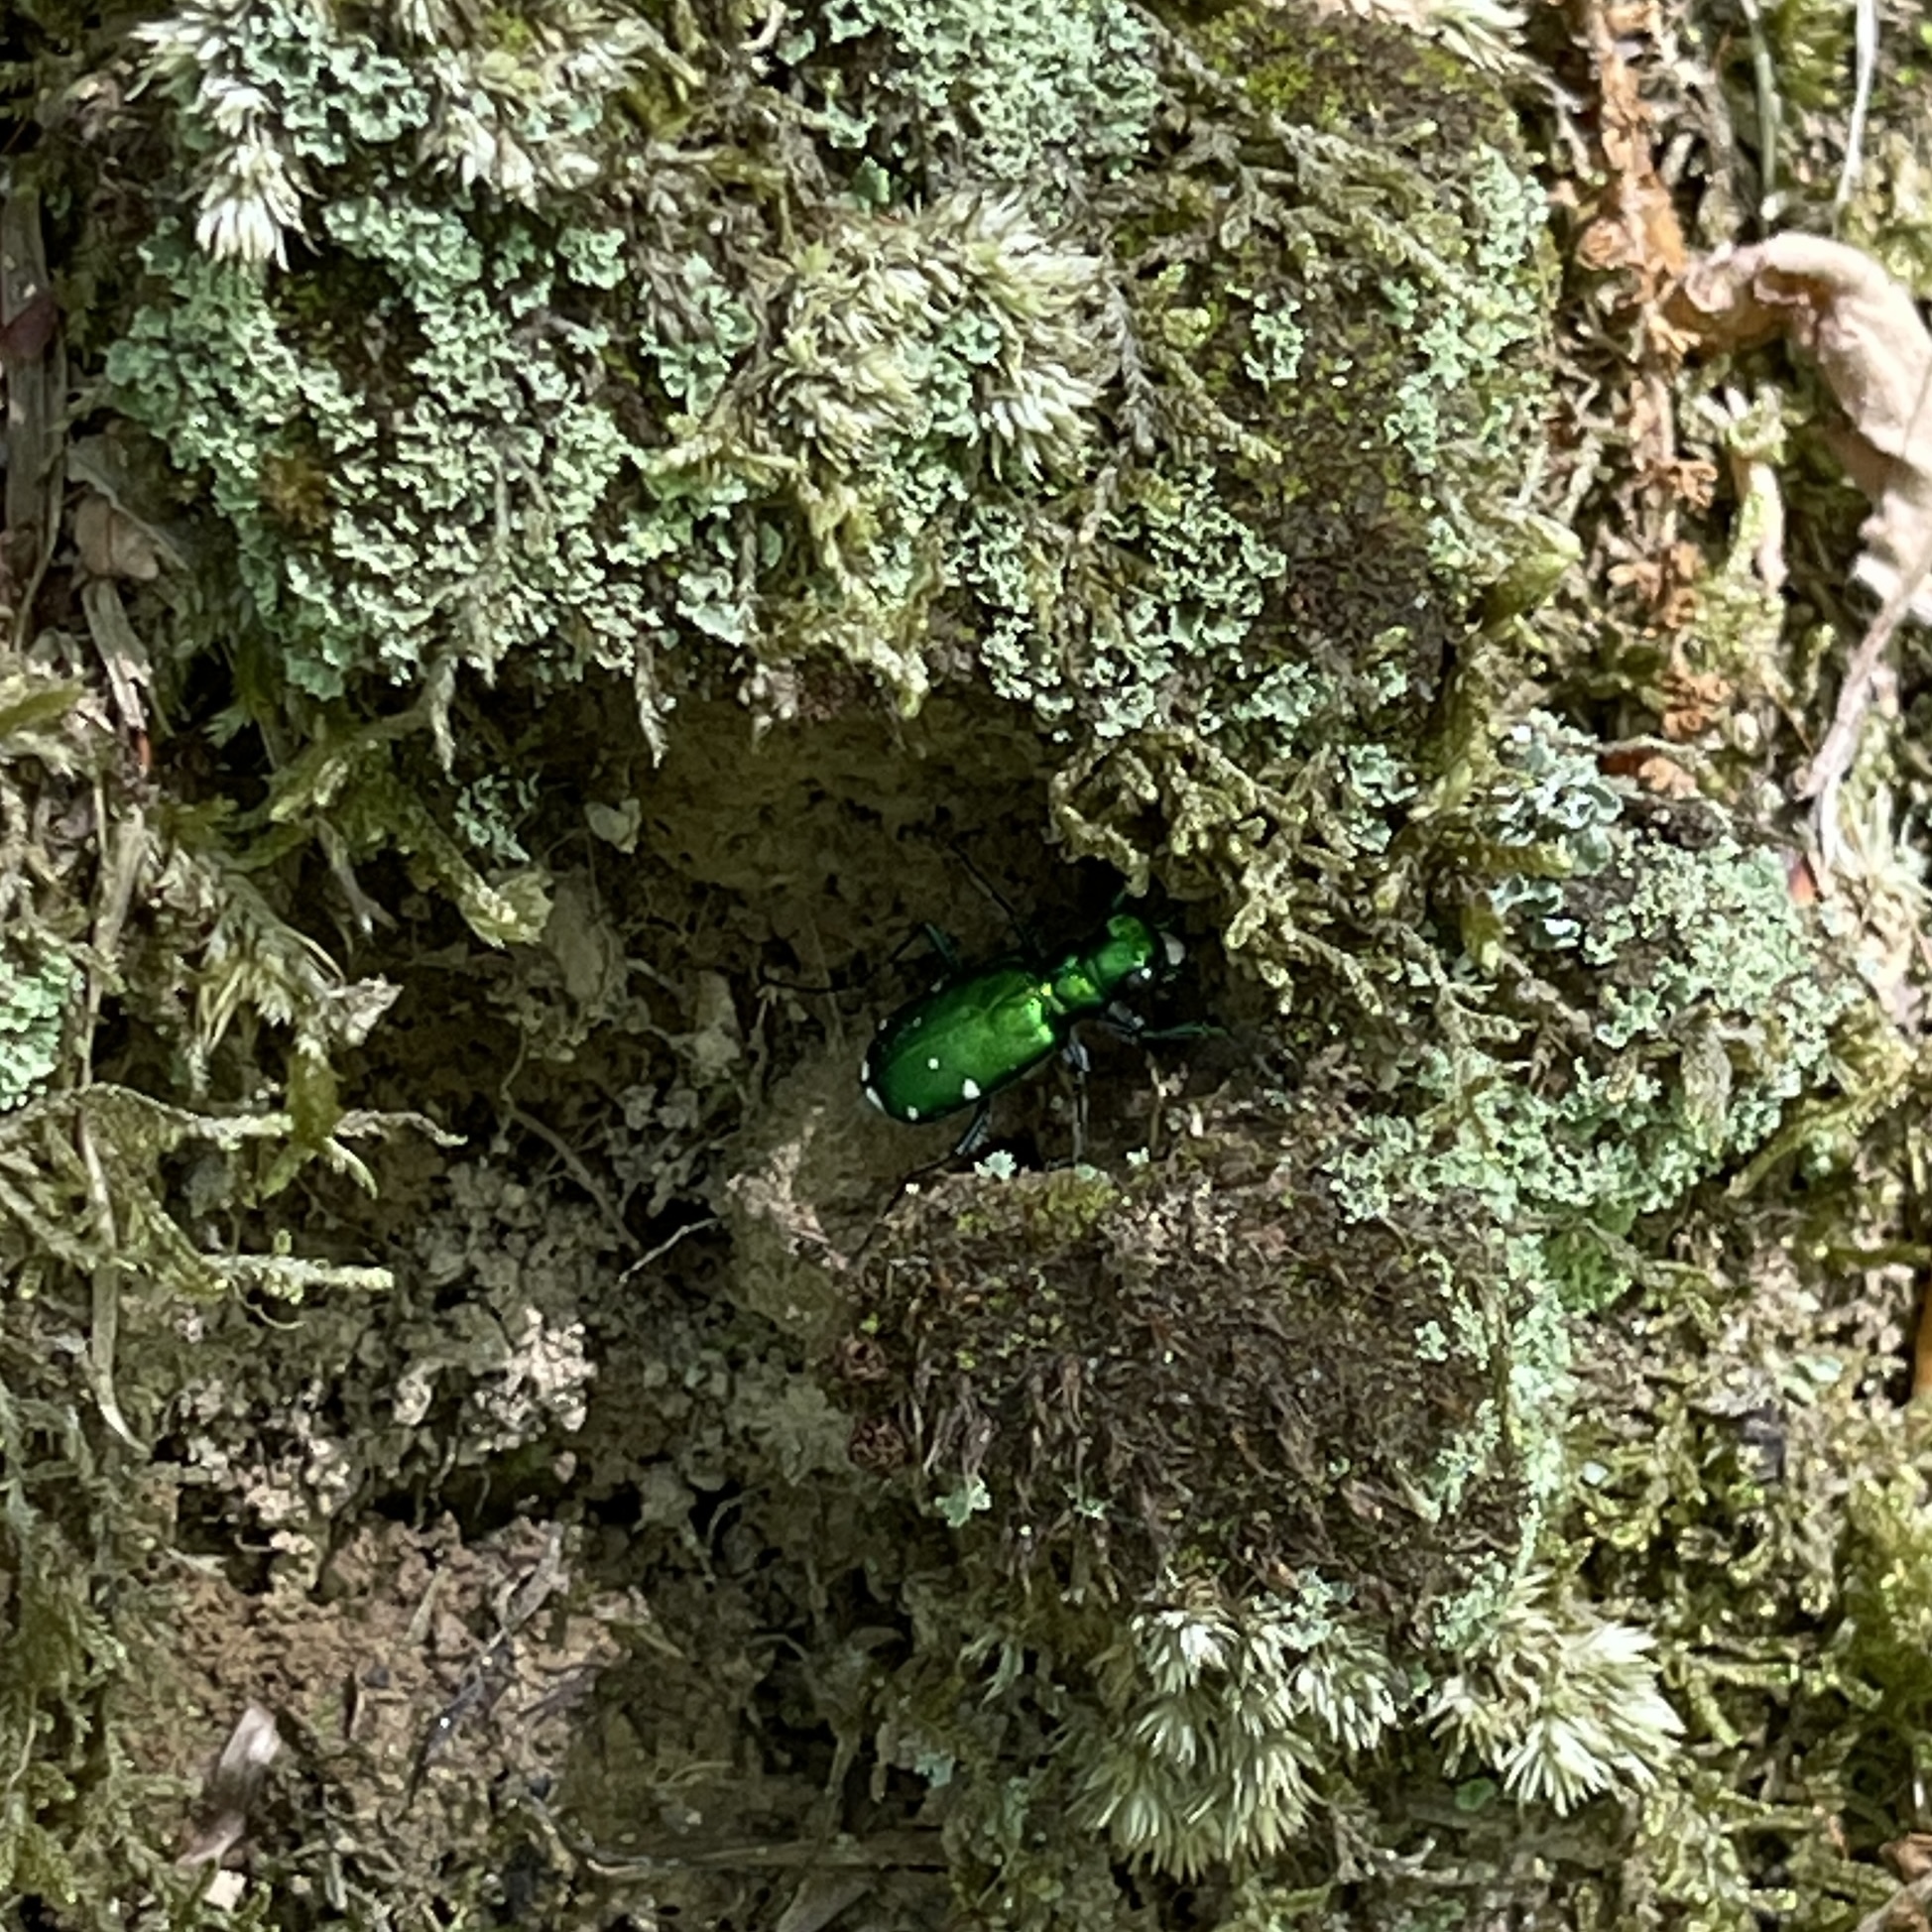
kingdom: Animalia
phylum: Arthropoda
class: Insecta
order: Coleoptera
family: Carabidae
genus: Cicindela
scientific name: Cicindela sexguttata
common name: Six-spotted tiger beetle
